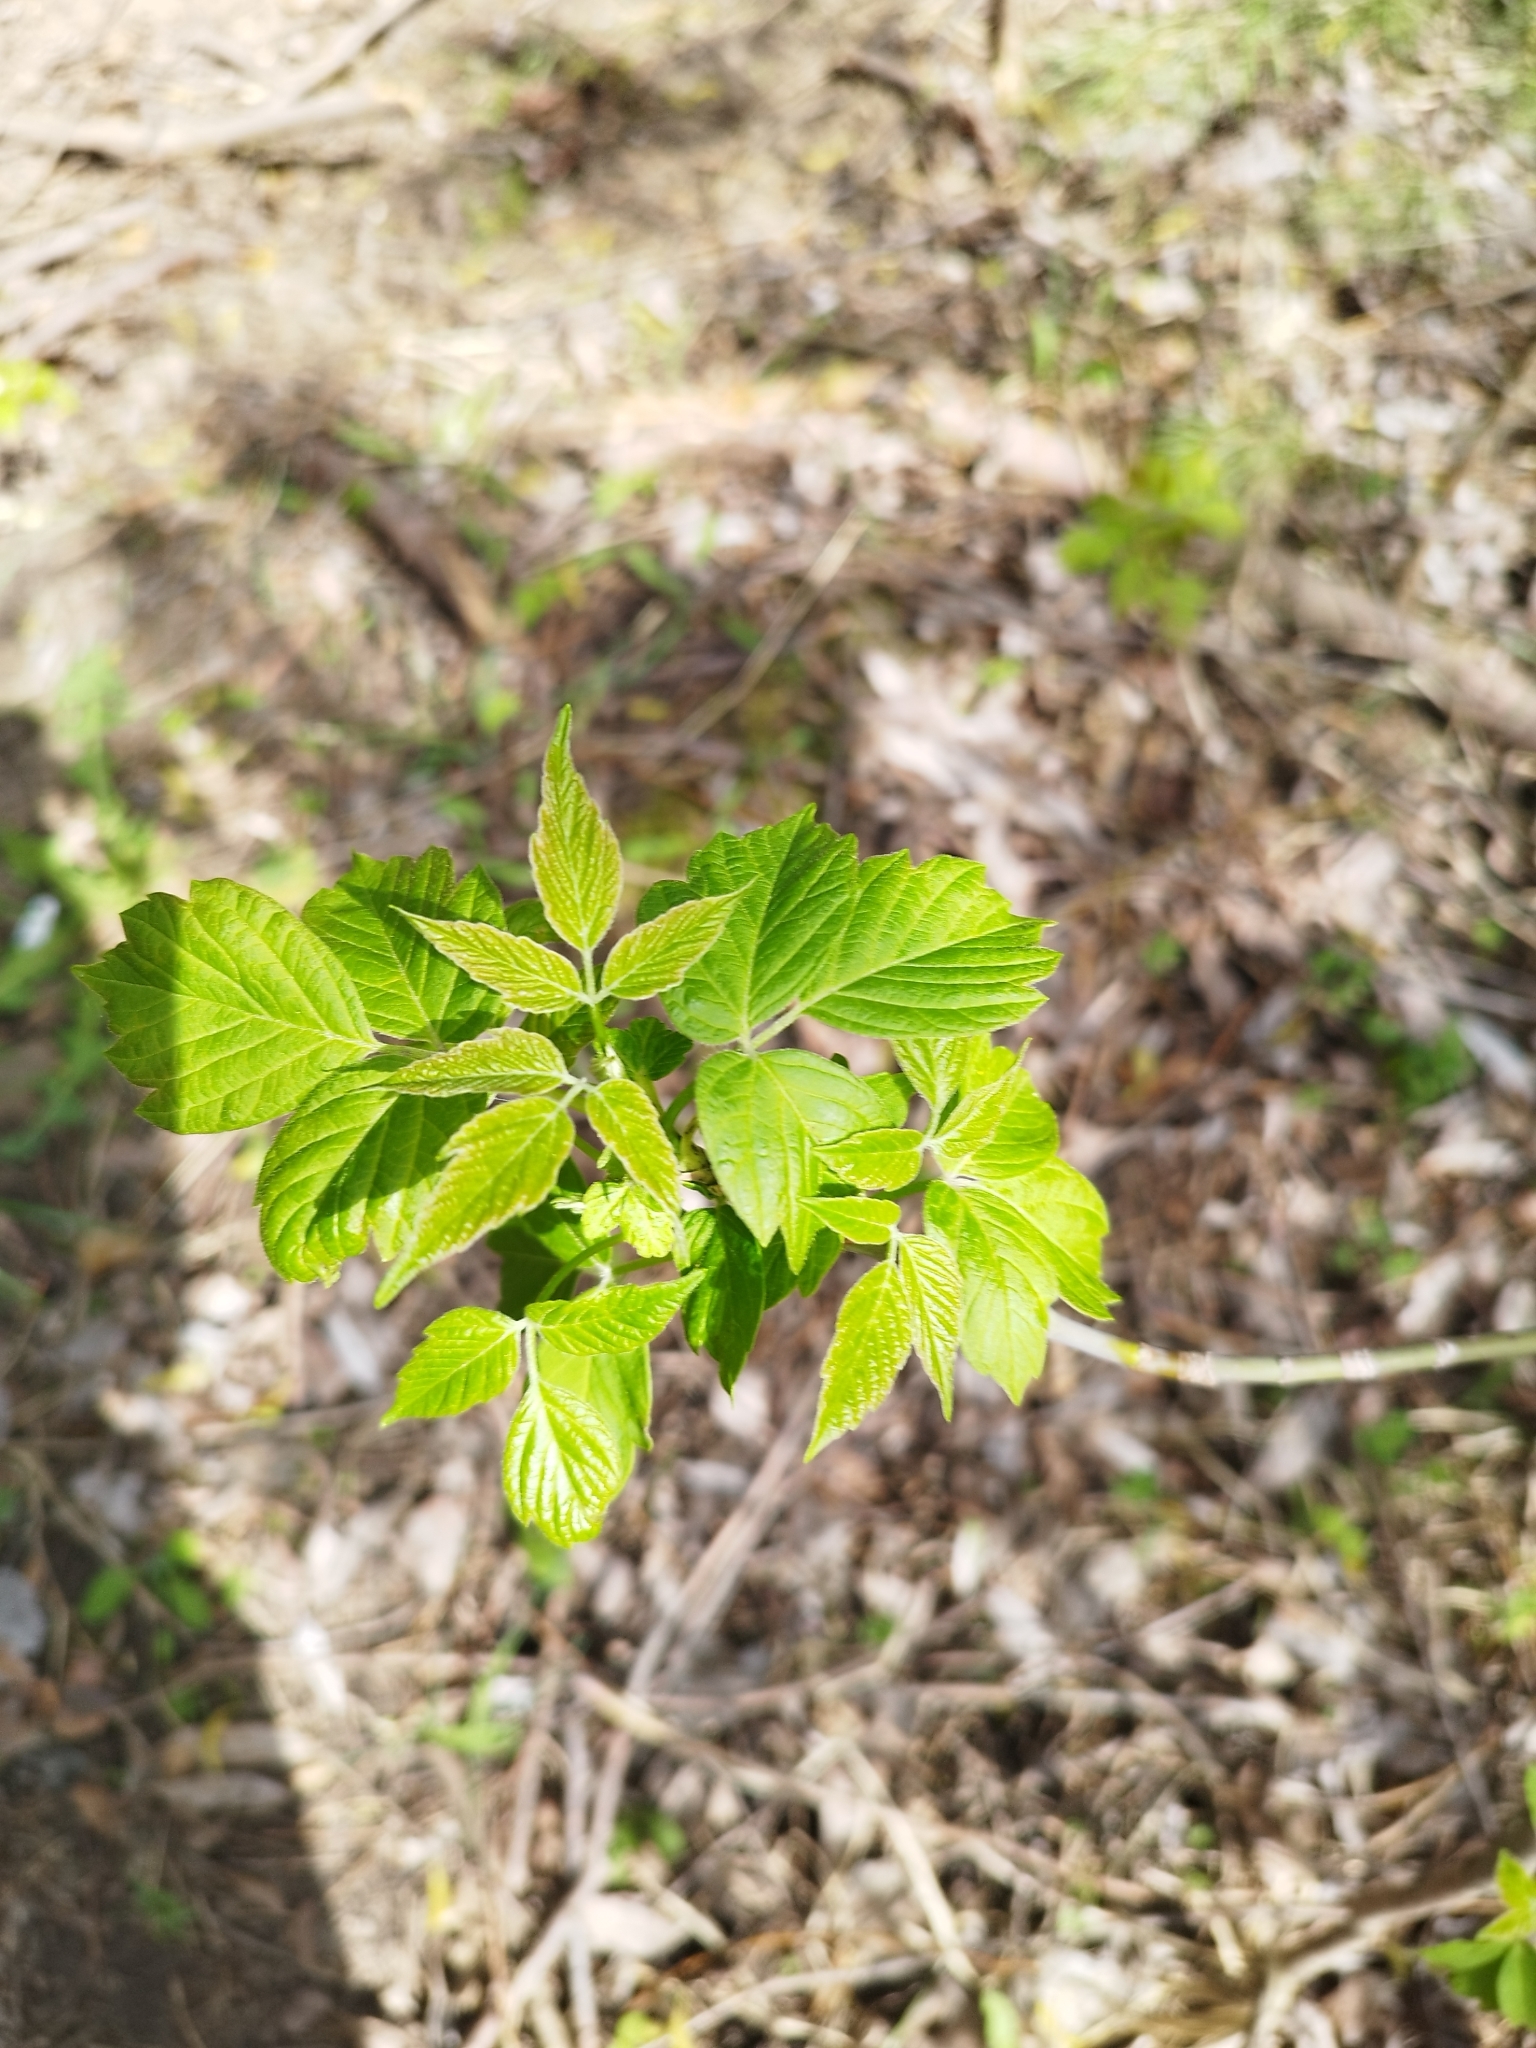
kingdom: Plantae
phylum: Tracheophyta
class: Magnoliopsida
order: Sapindales
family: Sapindaceae
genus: Acer
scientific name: Acer negundo
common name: Ashleaf maple
